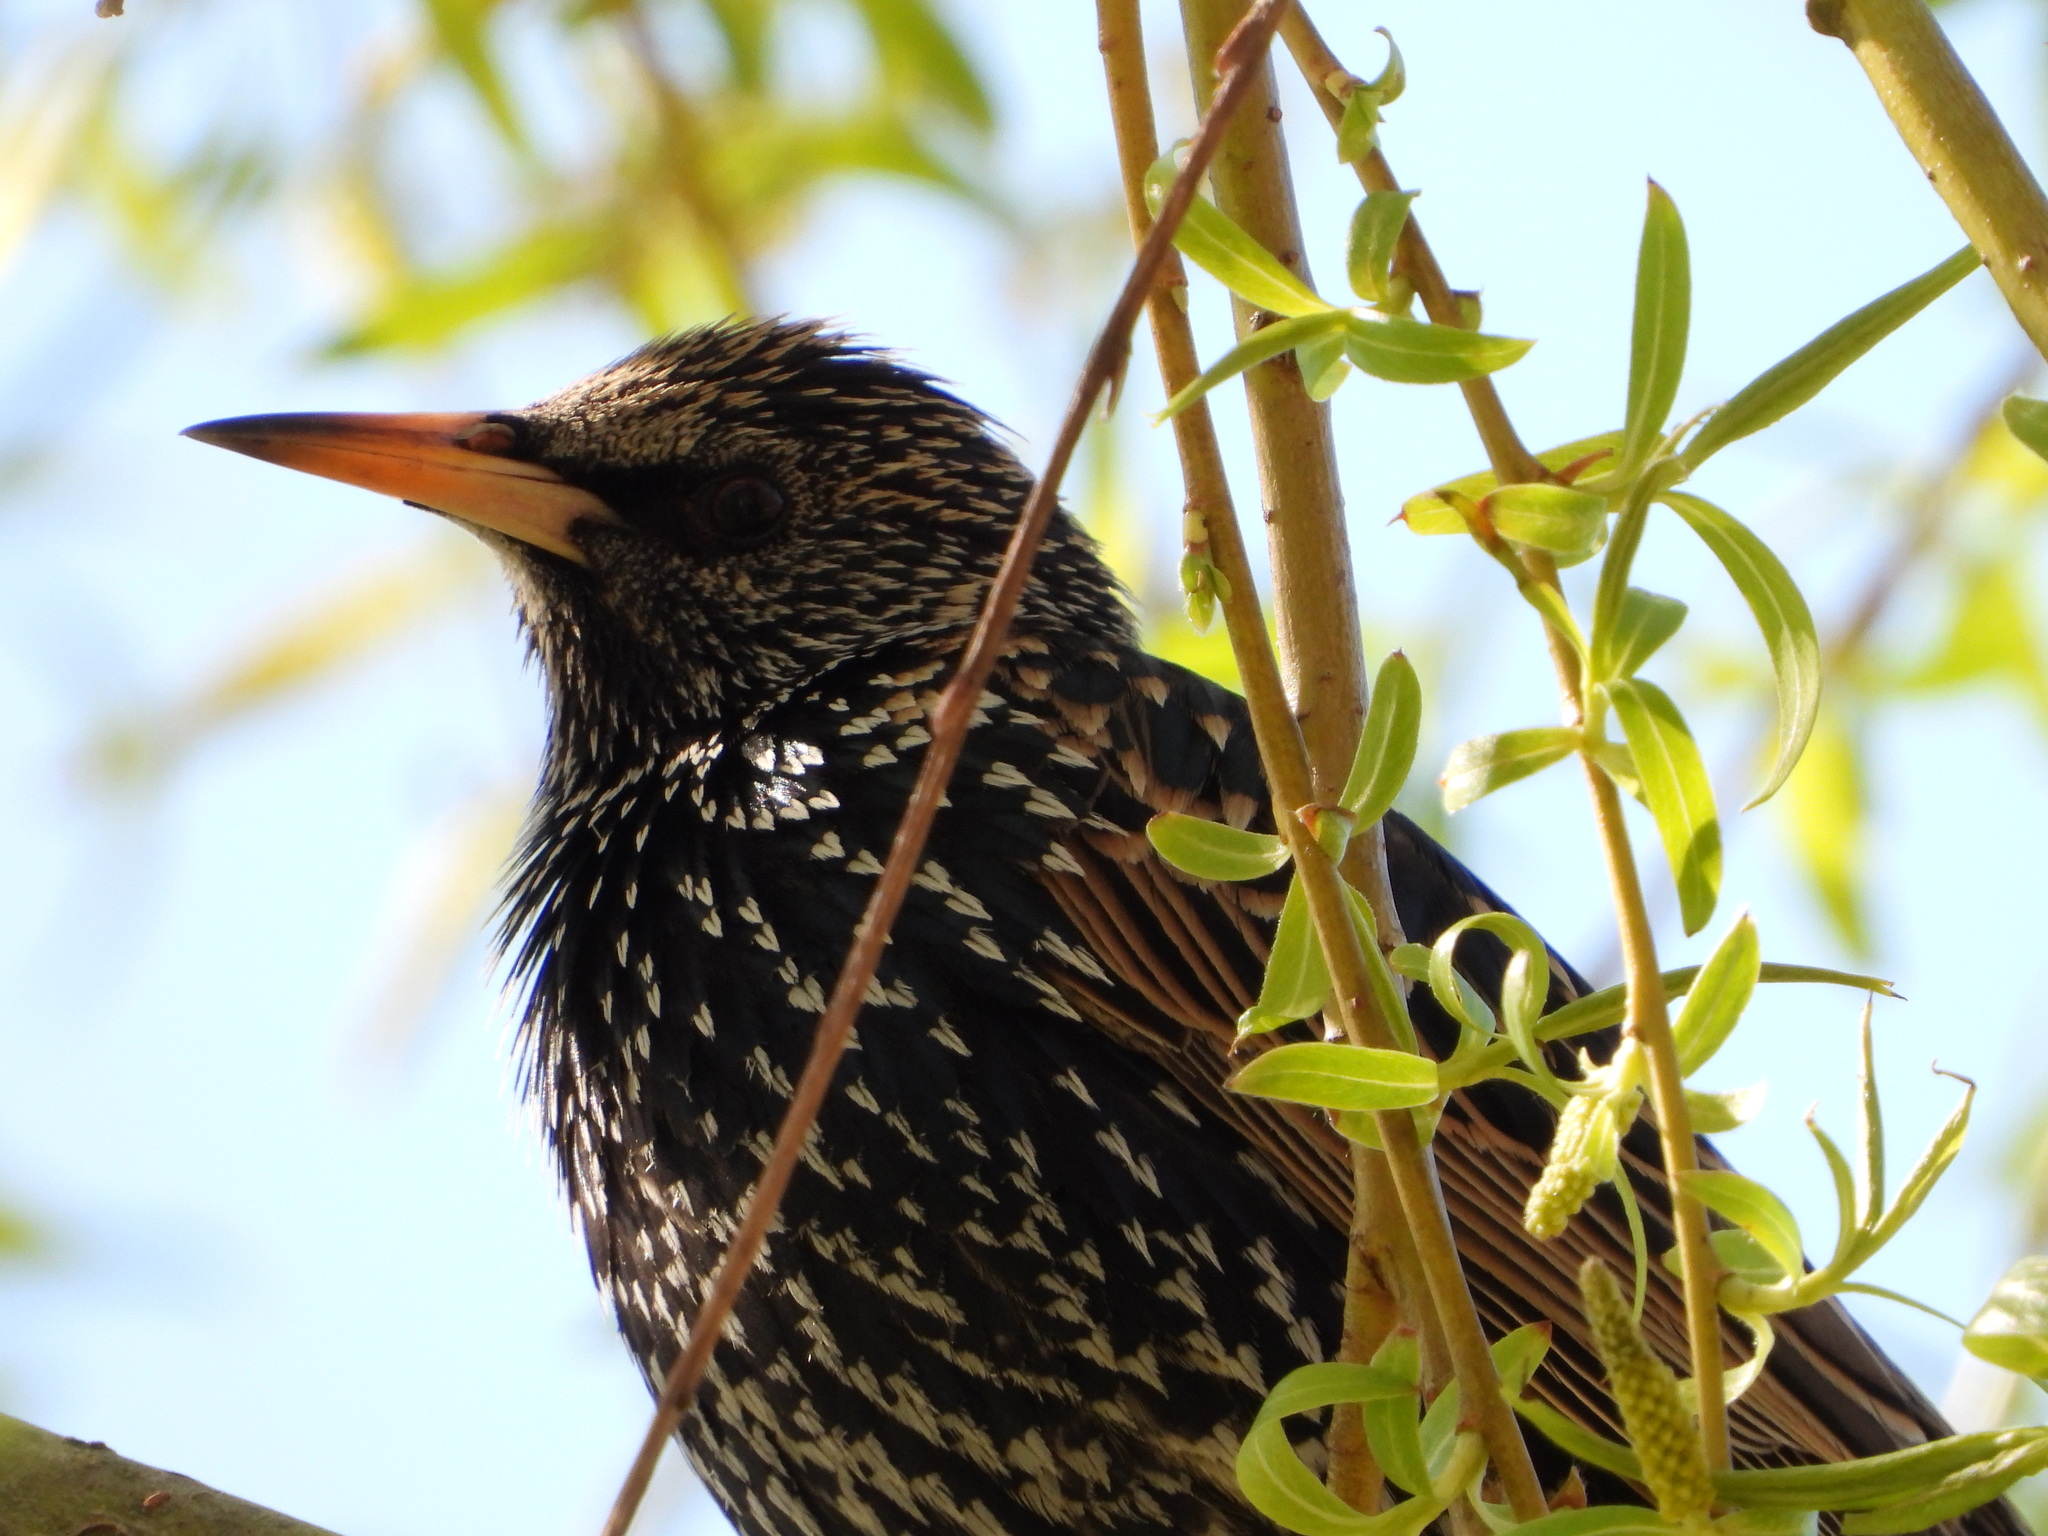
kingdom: Animalia
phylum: Chordata
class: Aves
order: Passeriformes
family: Sturnidae
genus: Sturnus
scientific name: Sturnus vulgaris
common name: Common starling
